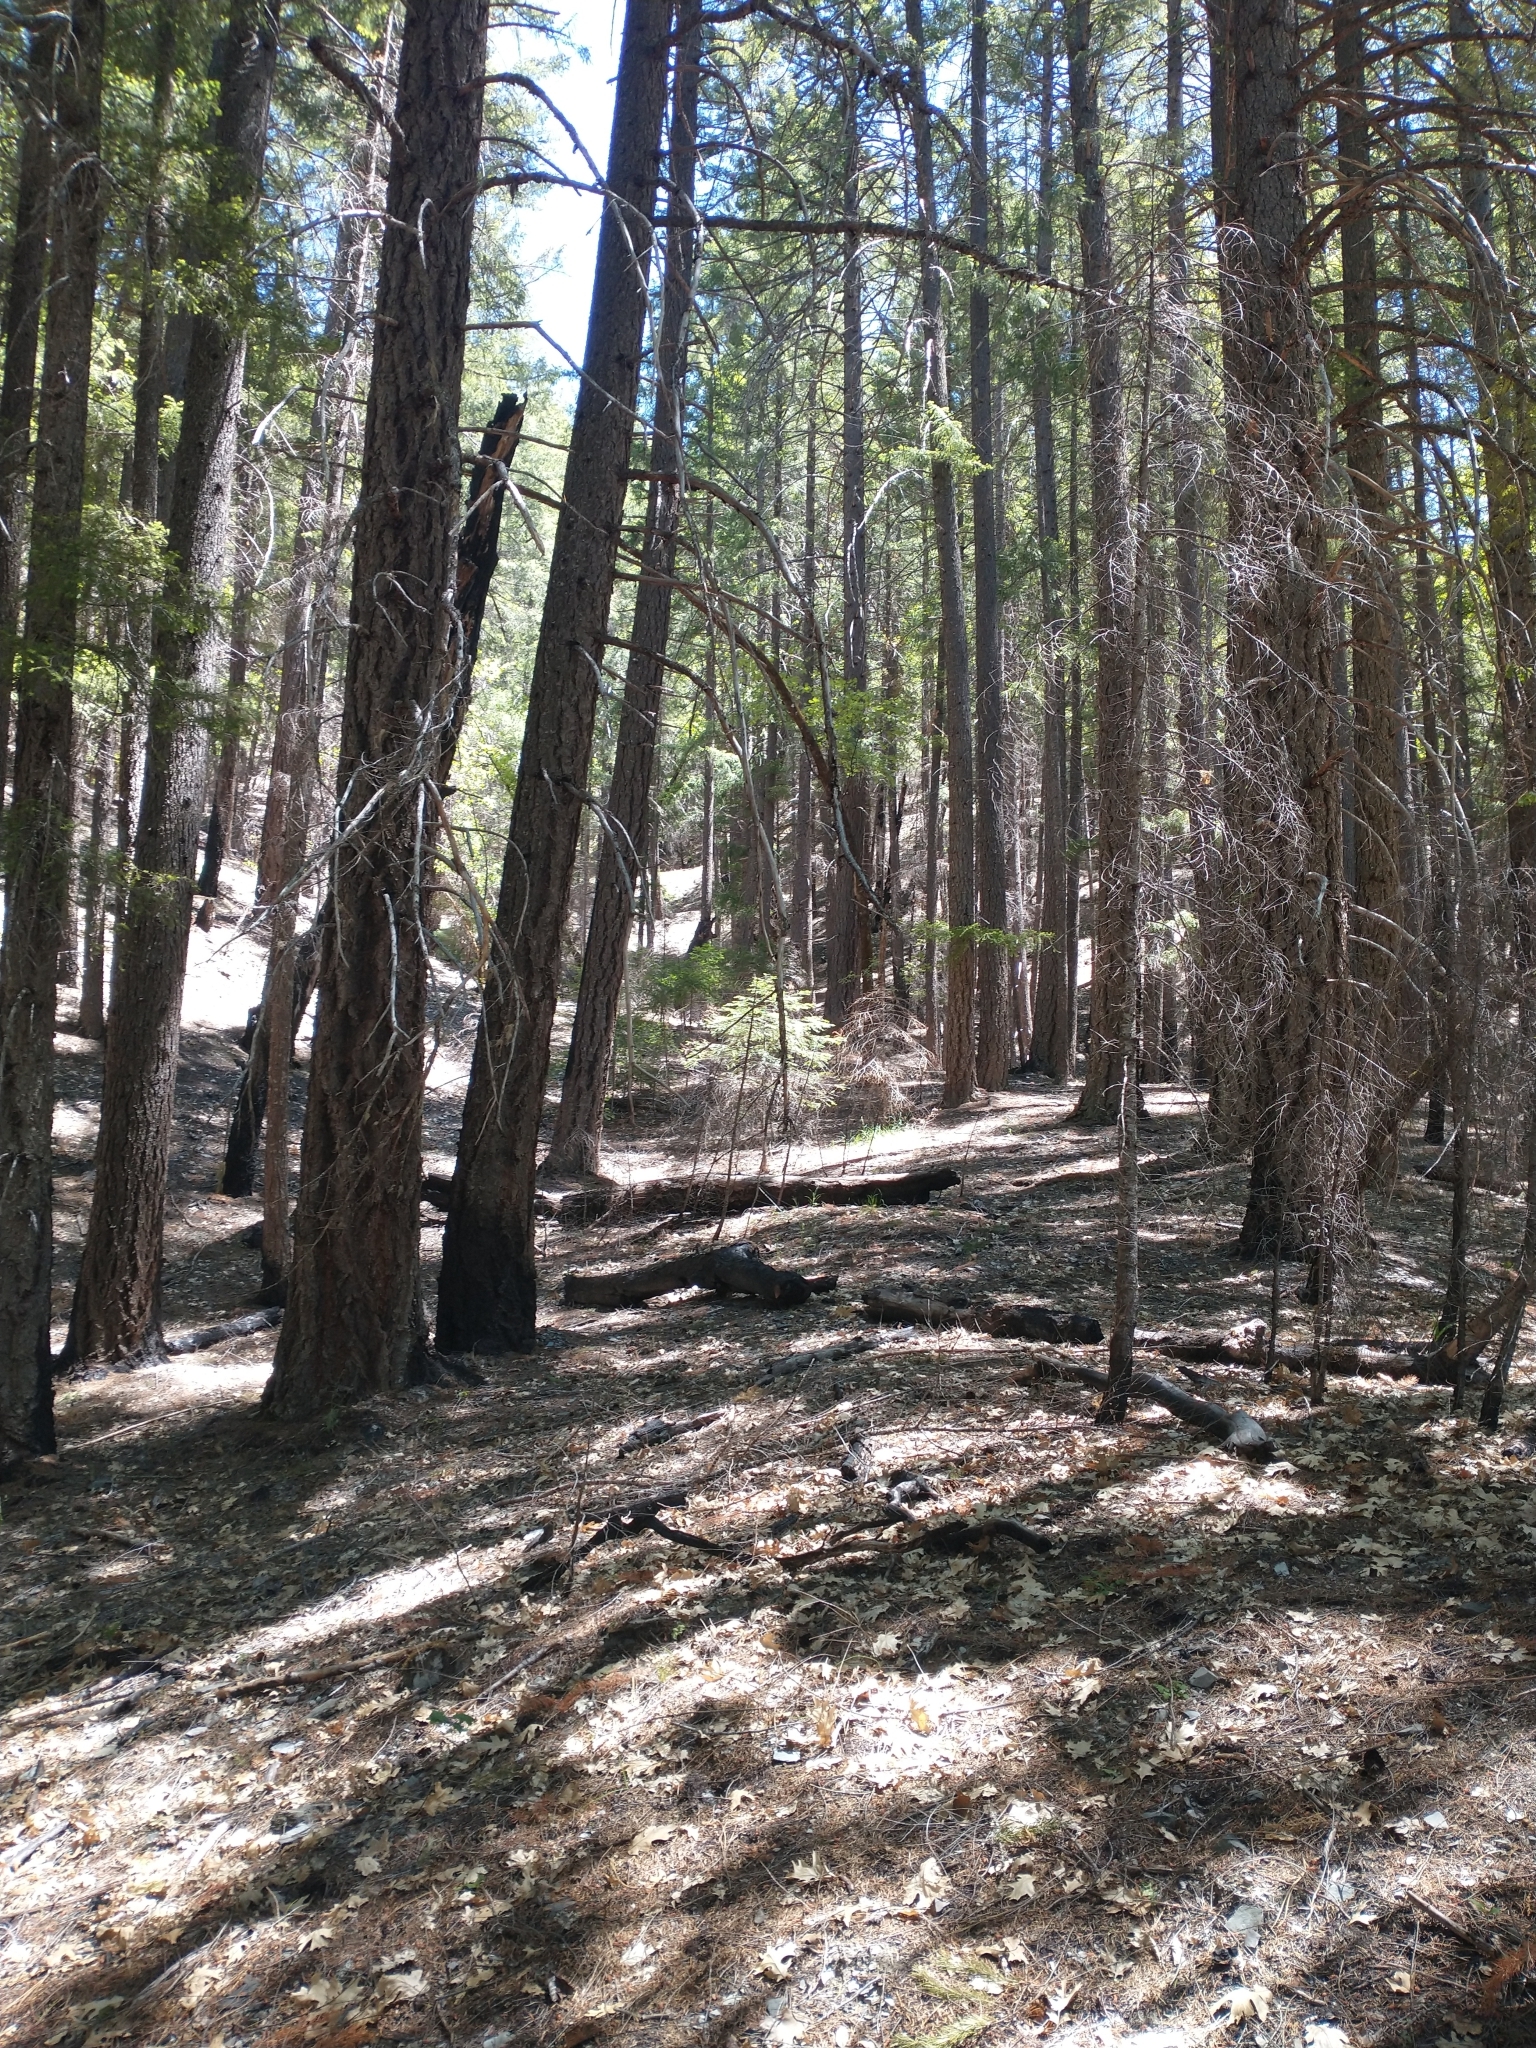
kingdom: Plantae
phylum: Tracheophyta
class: Pinopsida
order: Pinales
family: Pinaceae
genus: Pseudotsuga
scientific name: Pseudotsuga menziesii
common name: Douglas fir
